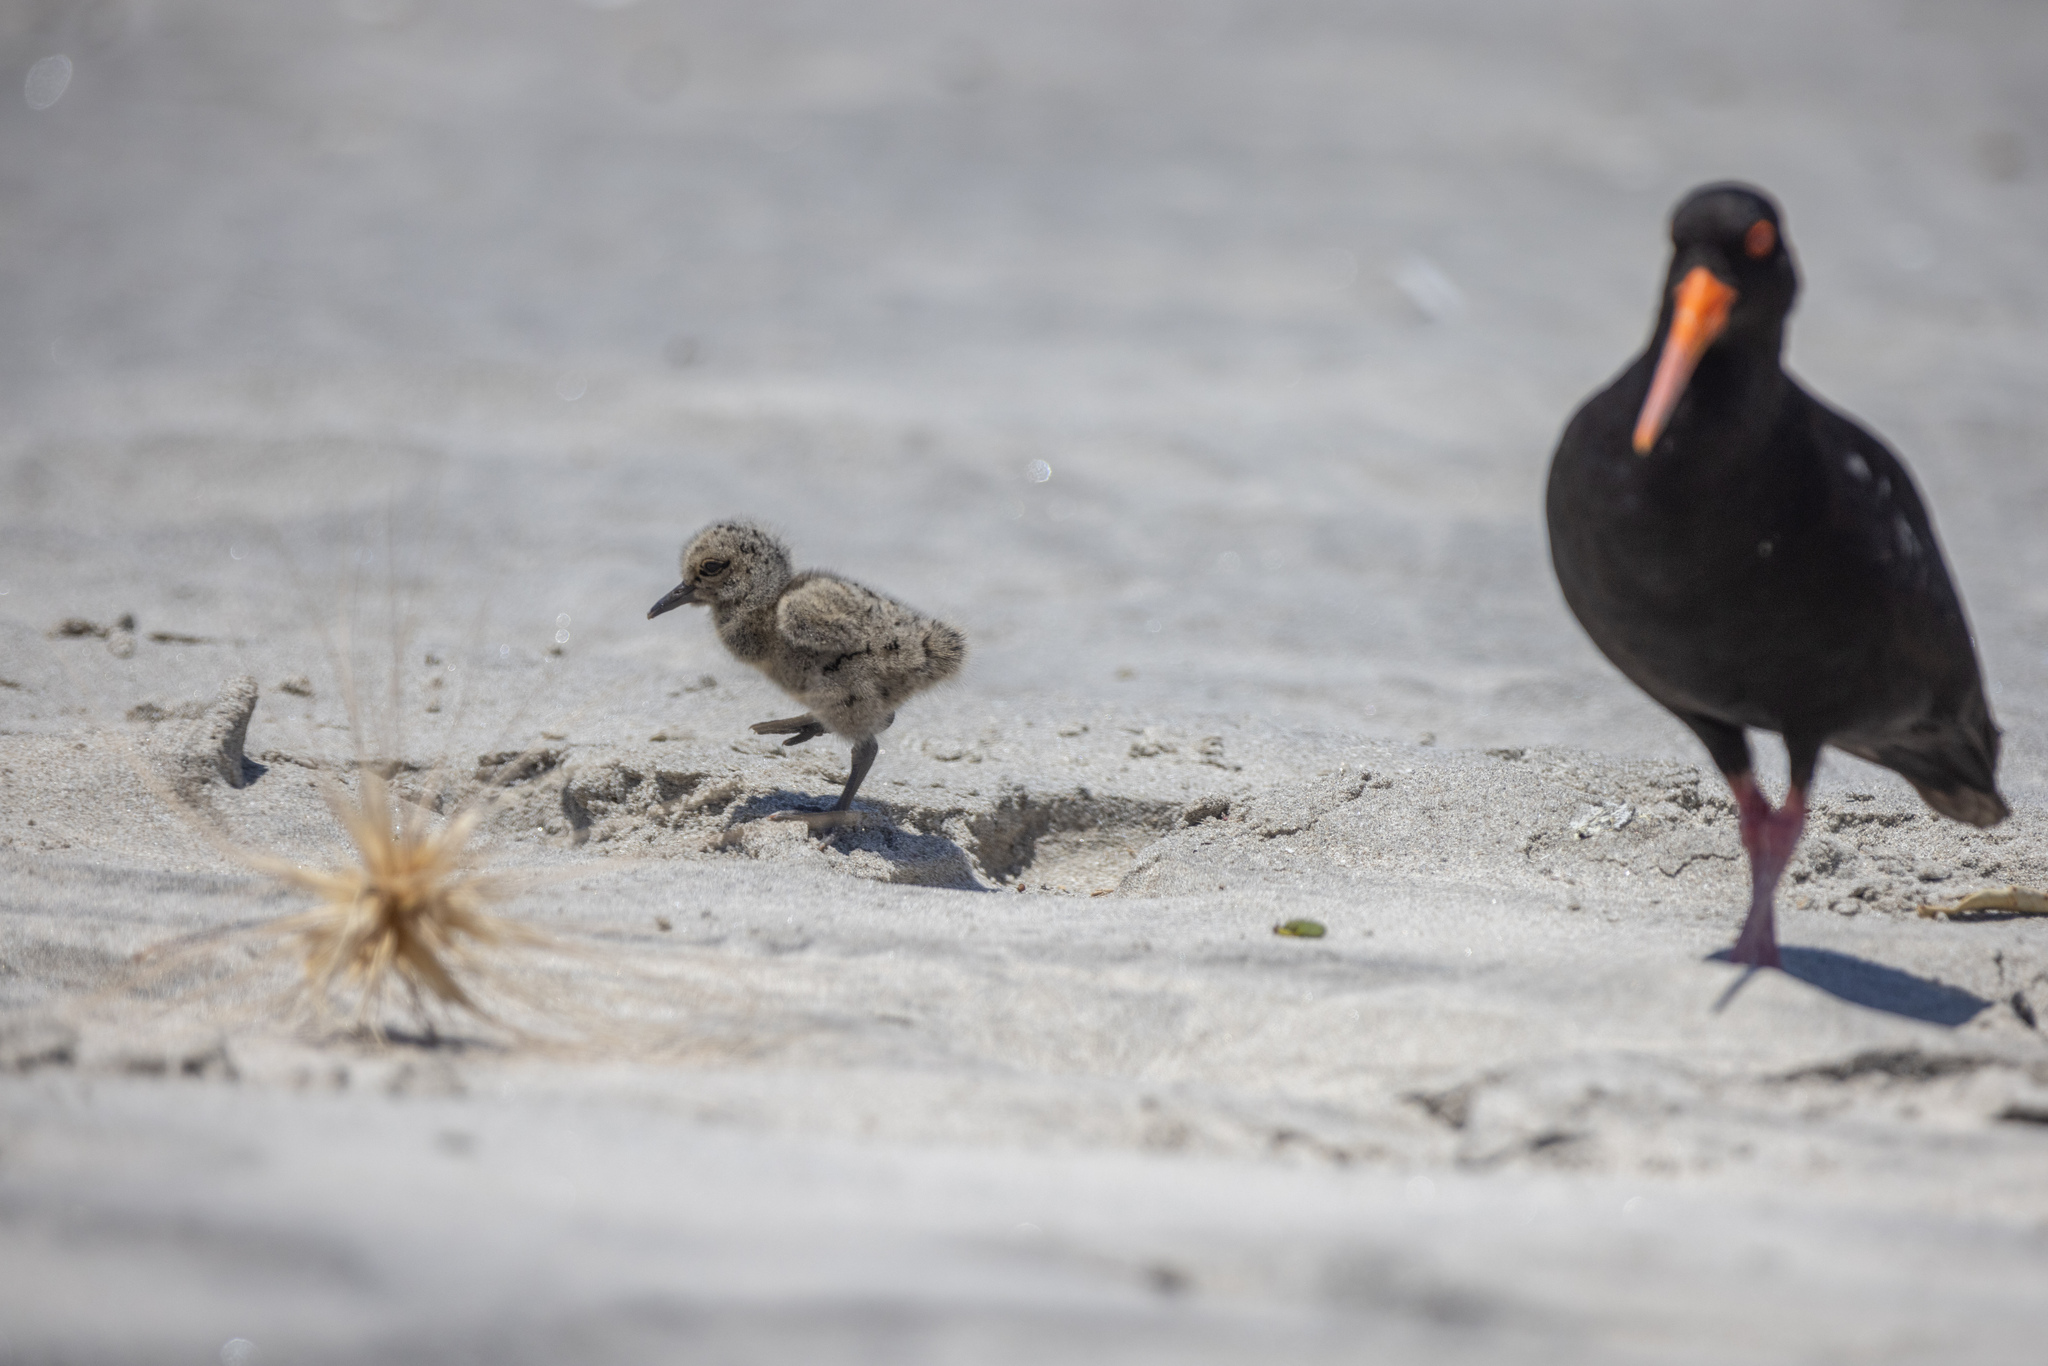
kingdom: Animalia
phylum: Chordata
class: Aves
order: Charadriiformes
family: Haematopodidae
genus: Haematopus
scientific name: Haematopus unicolor
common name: Variable oystercatcher
